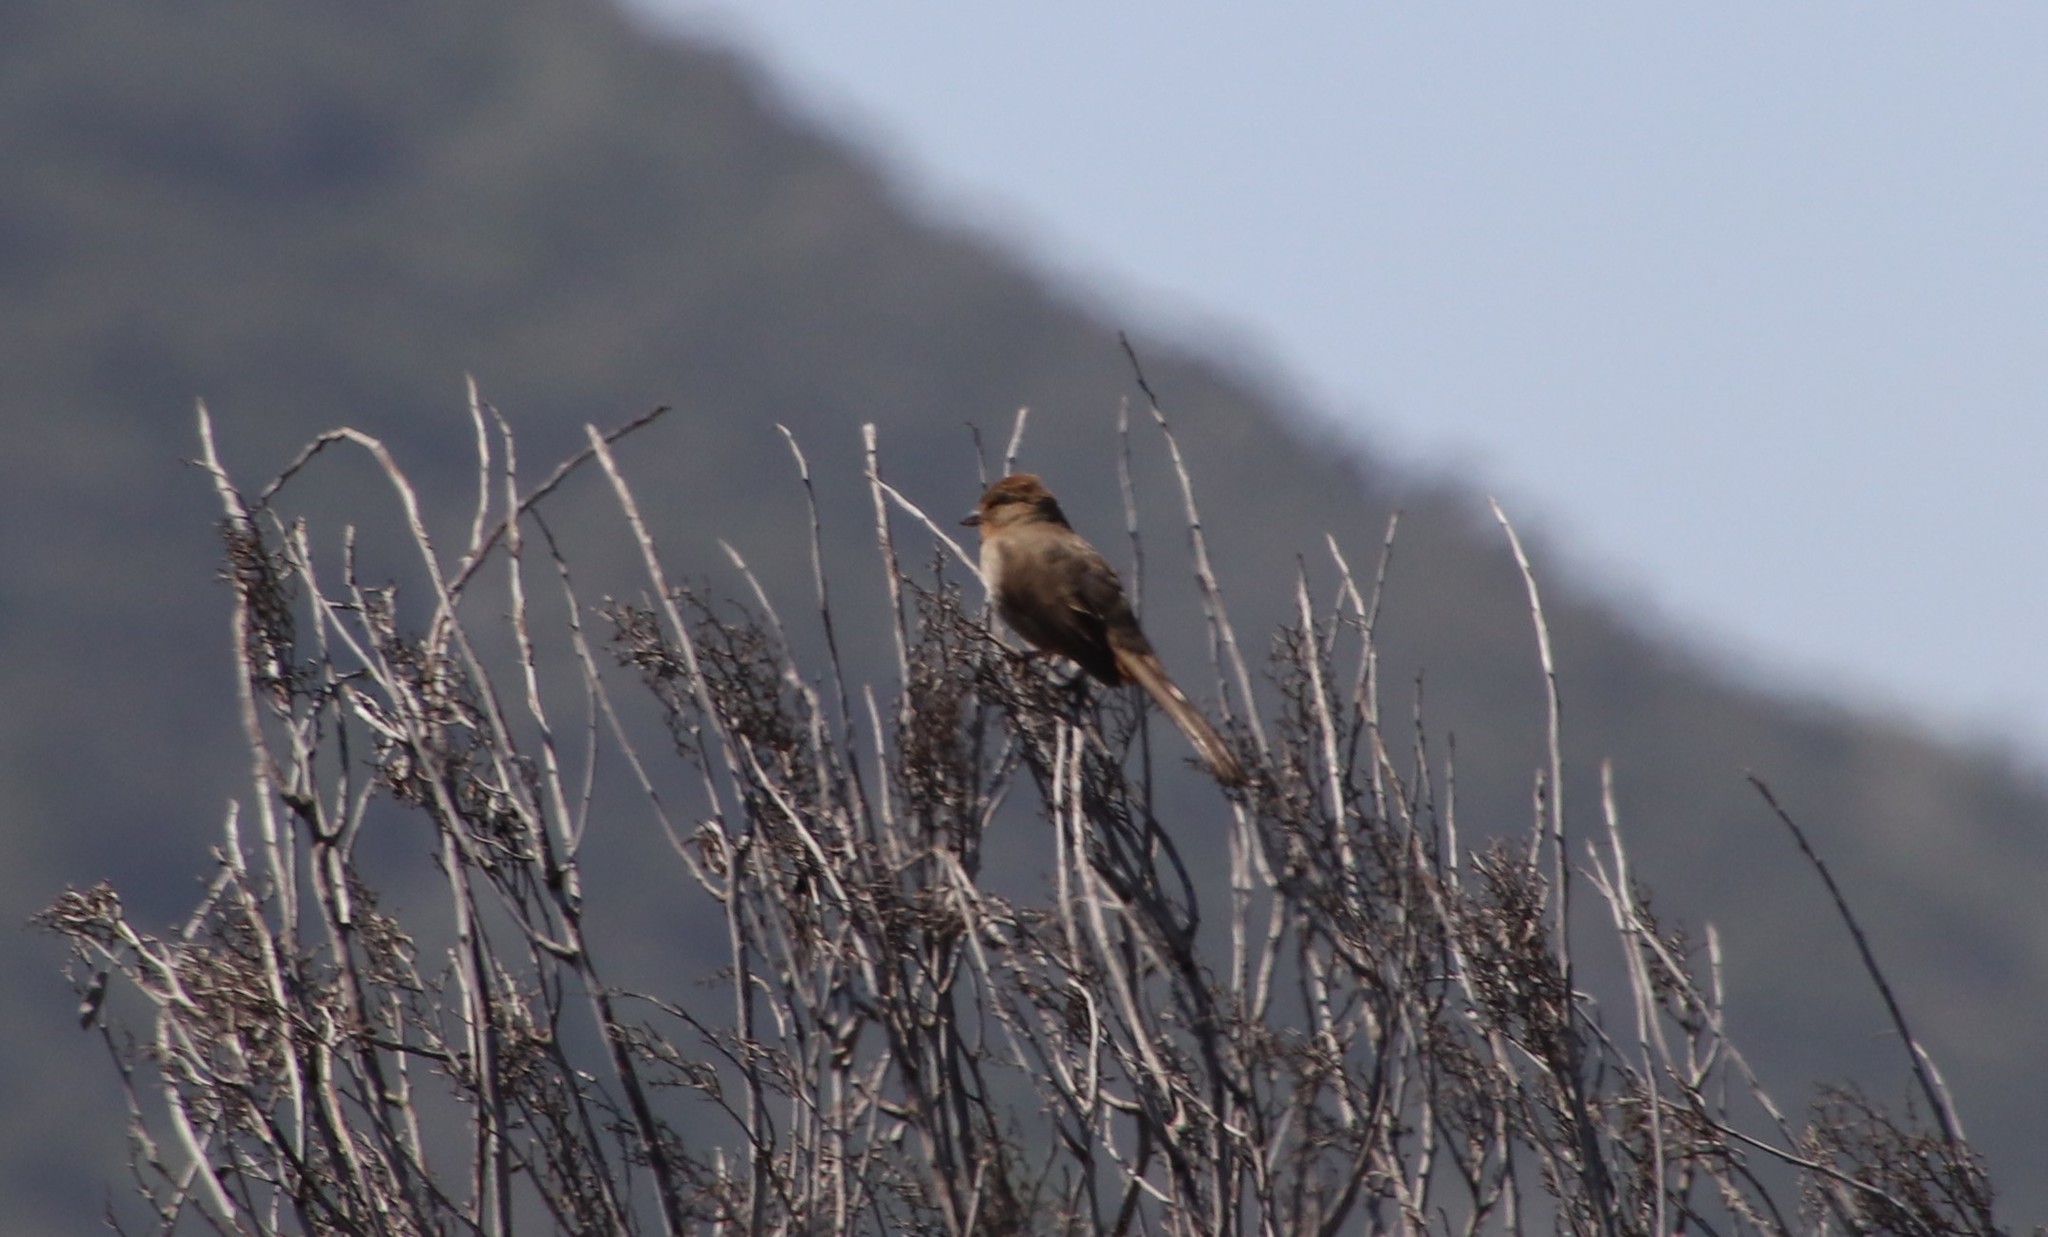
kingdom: Animalia
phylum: Chordata
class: Aves
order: Passeriformes
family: Passerellidae
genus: Melozone
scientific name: Melozone crissalis
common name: California towhee
